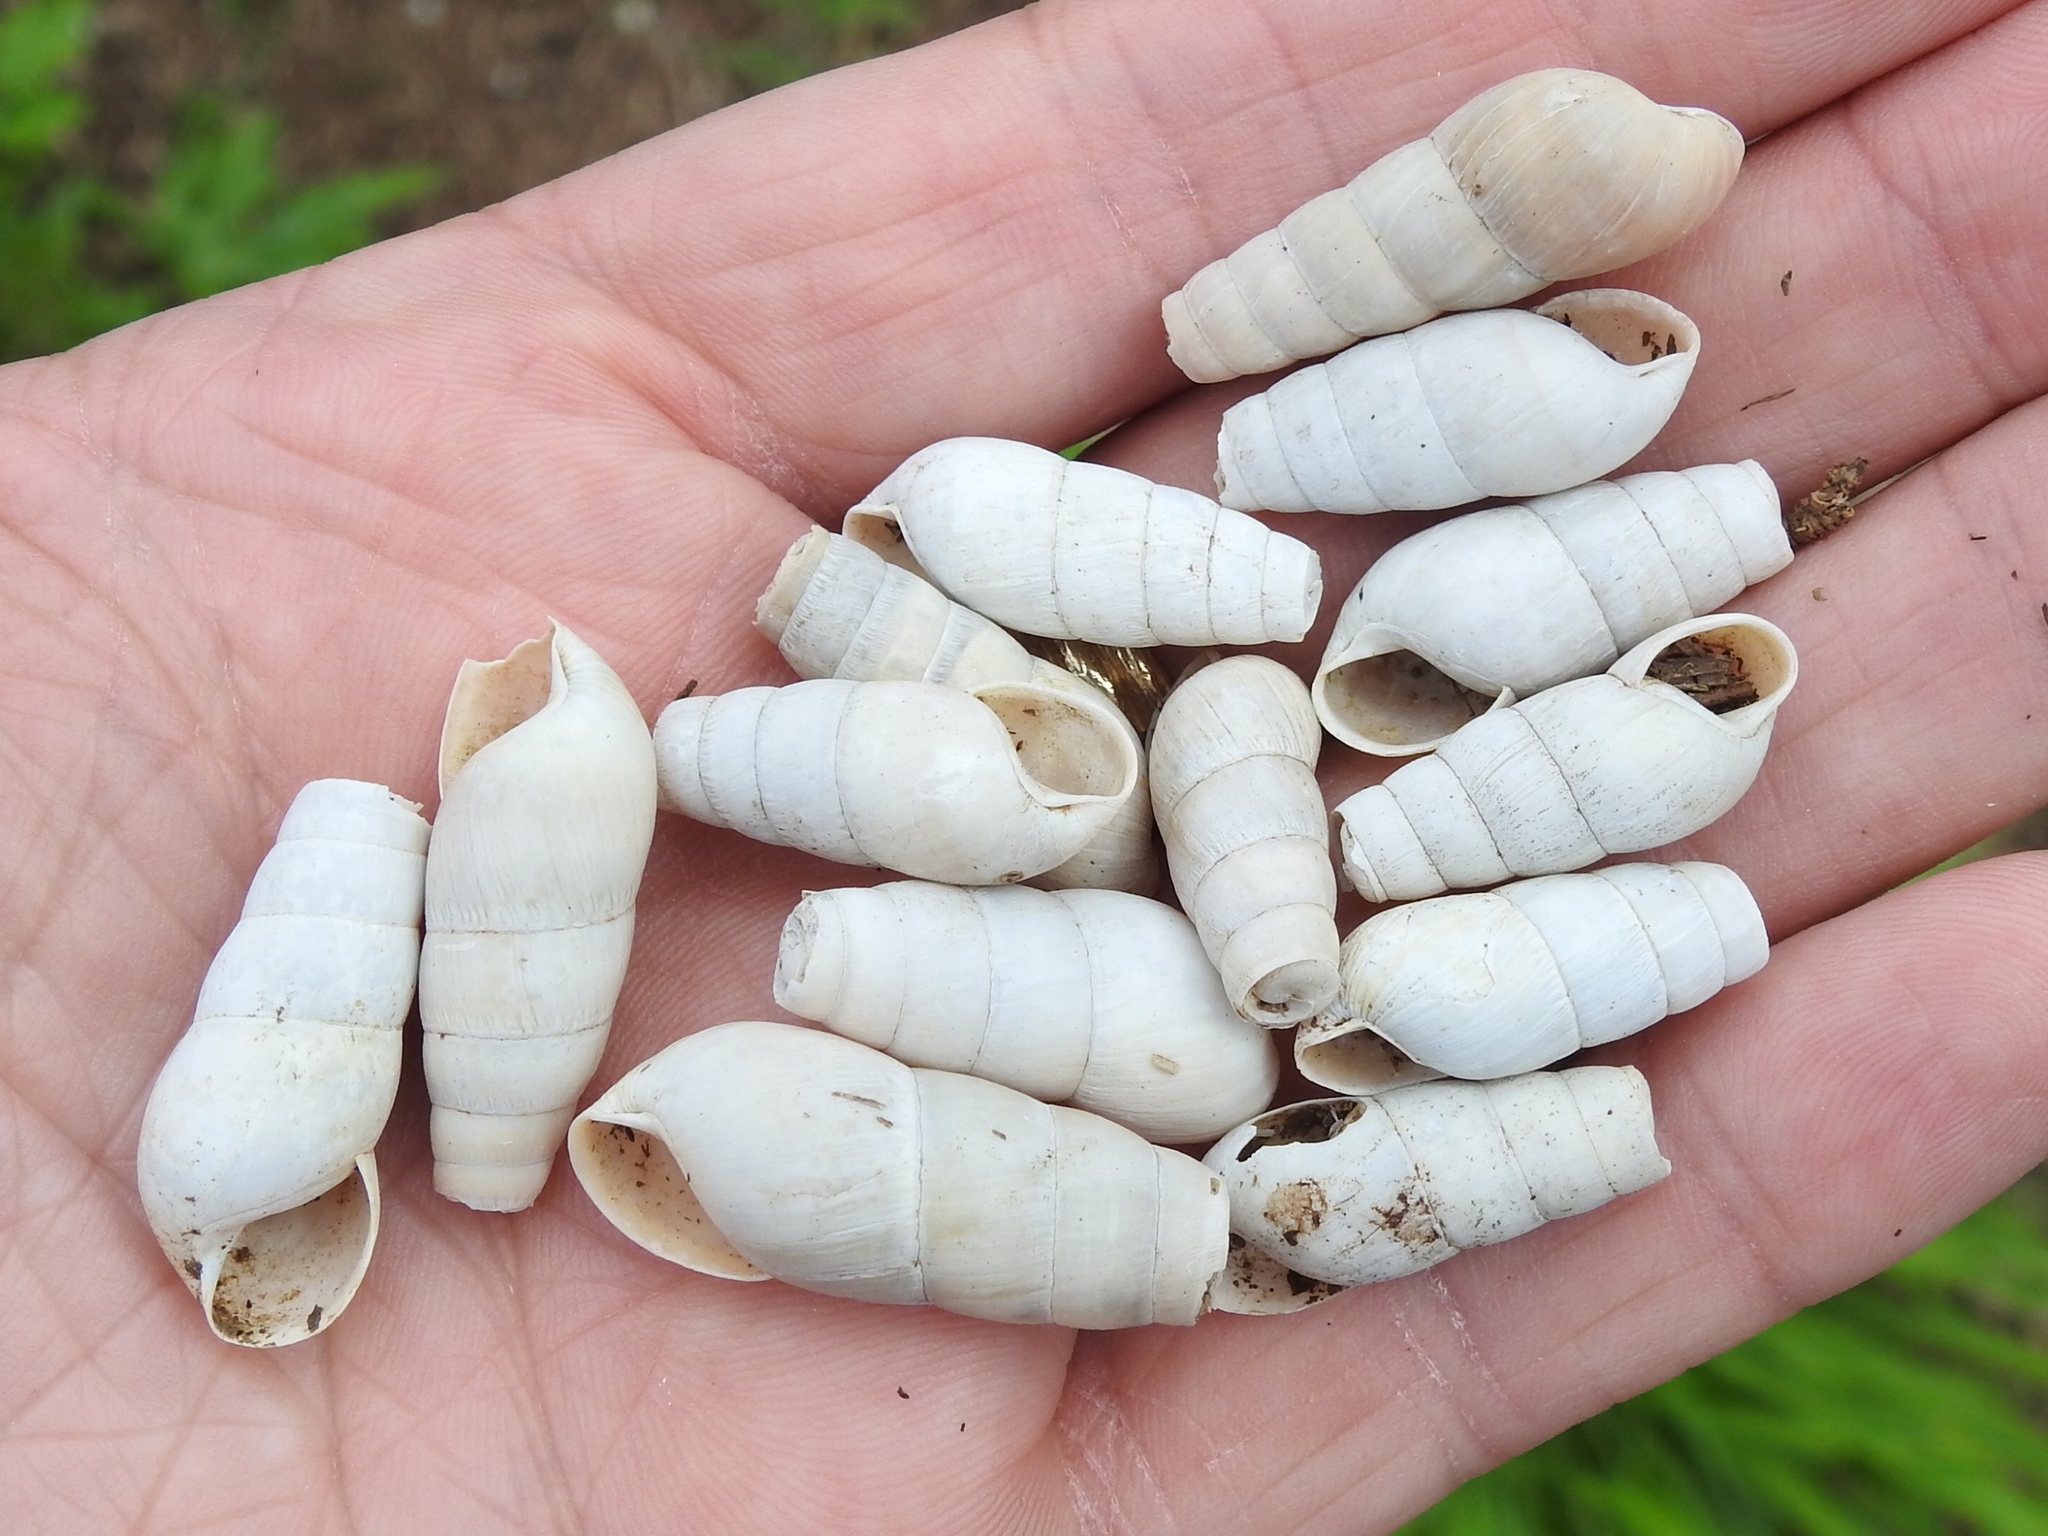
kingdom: Animalia
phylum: Mollusca
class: Gastropoda
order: Stylommatophora
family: Achatinidae
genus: Rumina
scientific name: Rumina decollata
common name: Decollate snail
